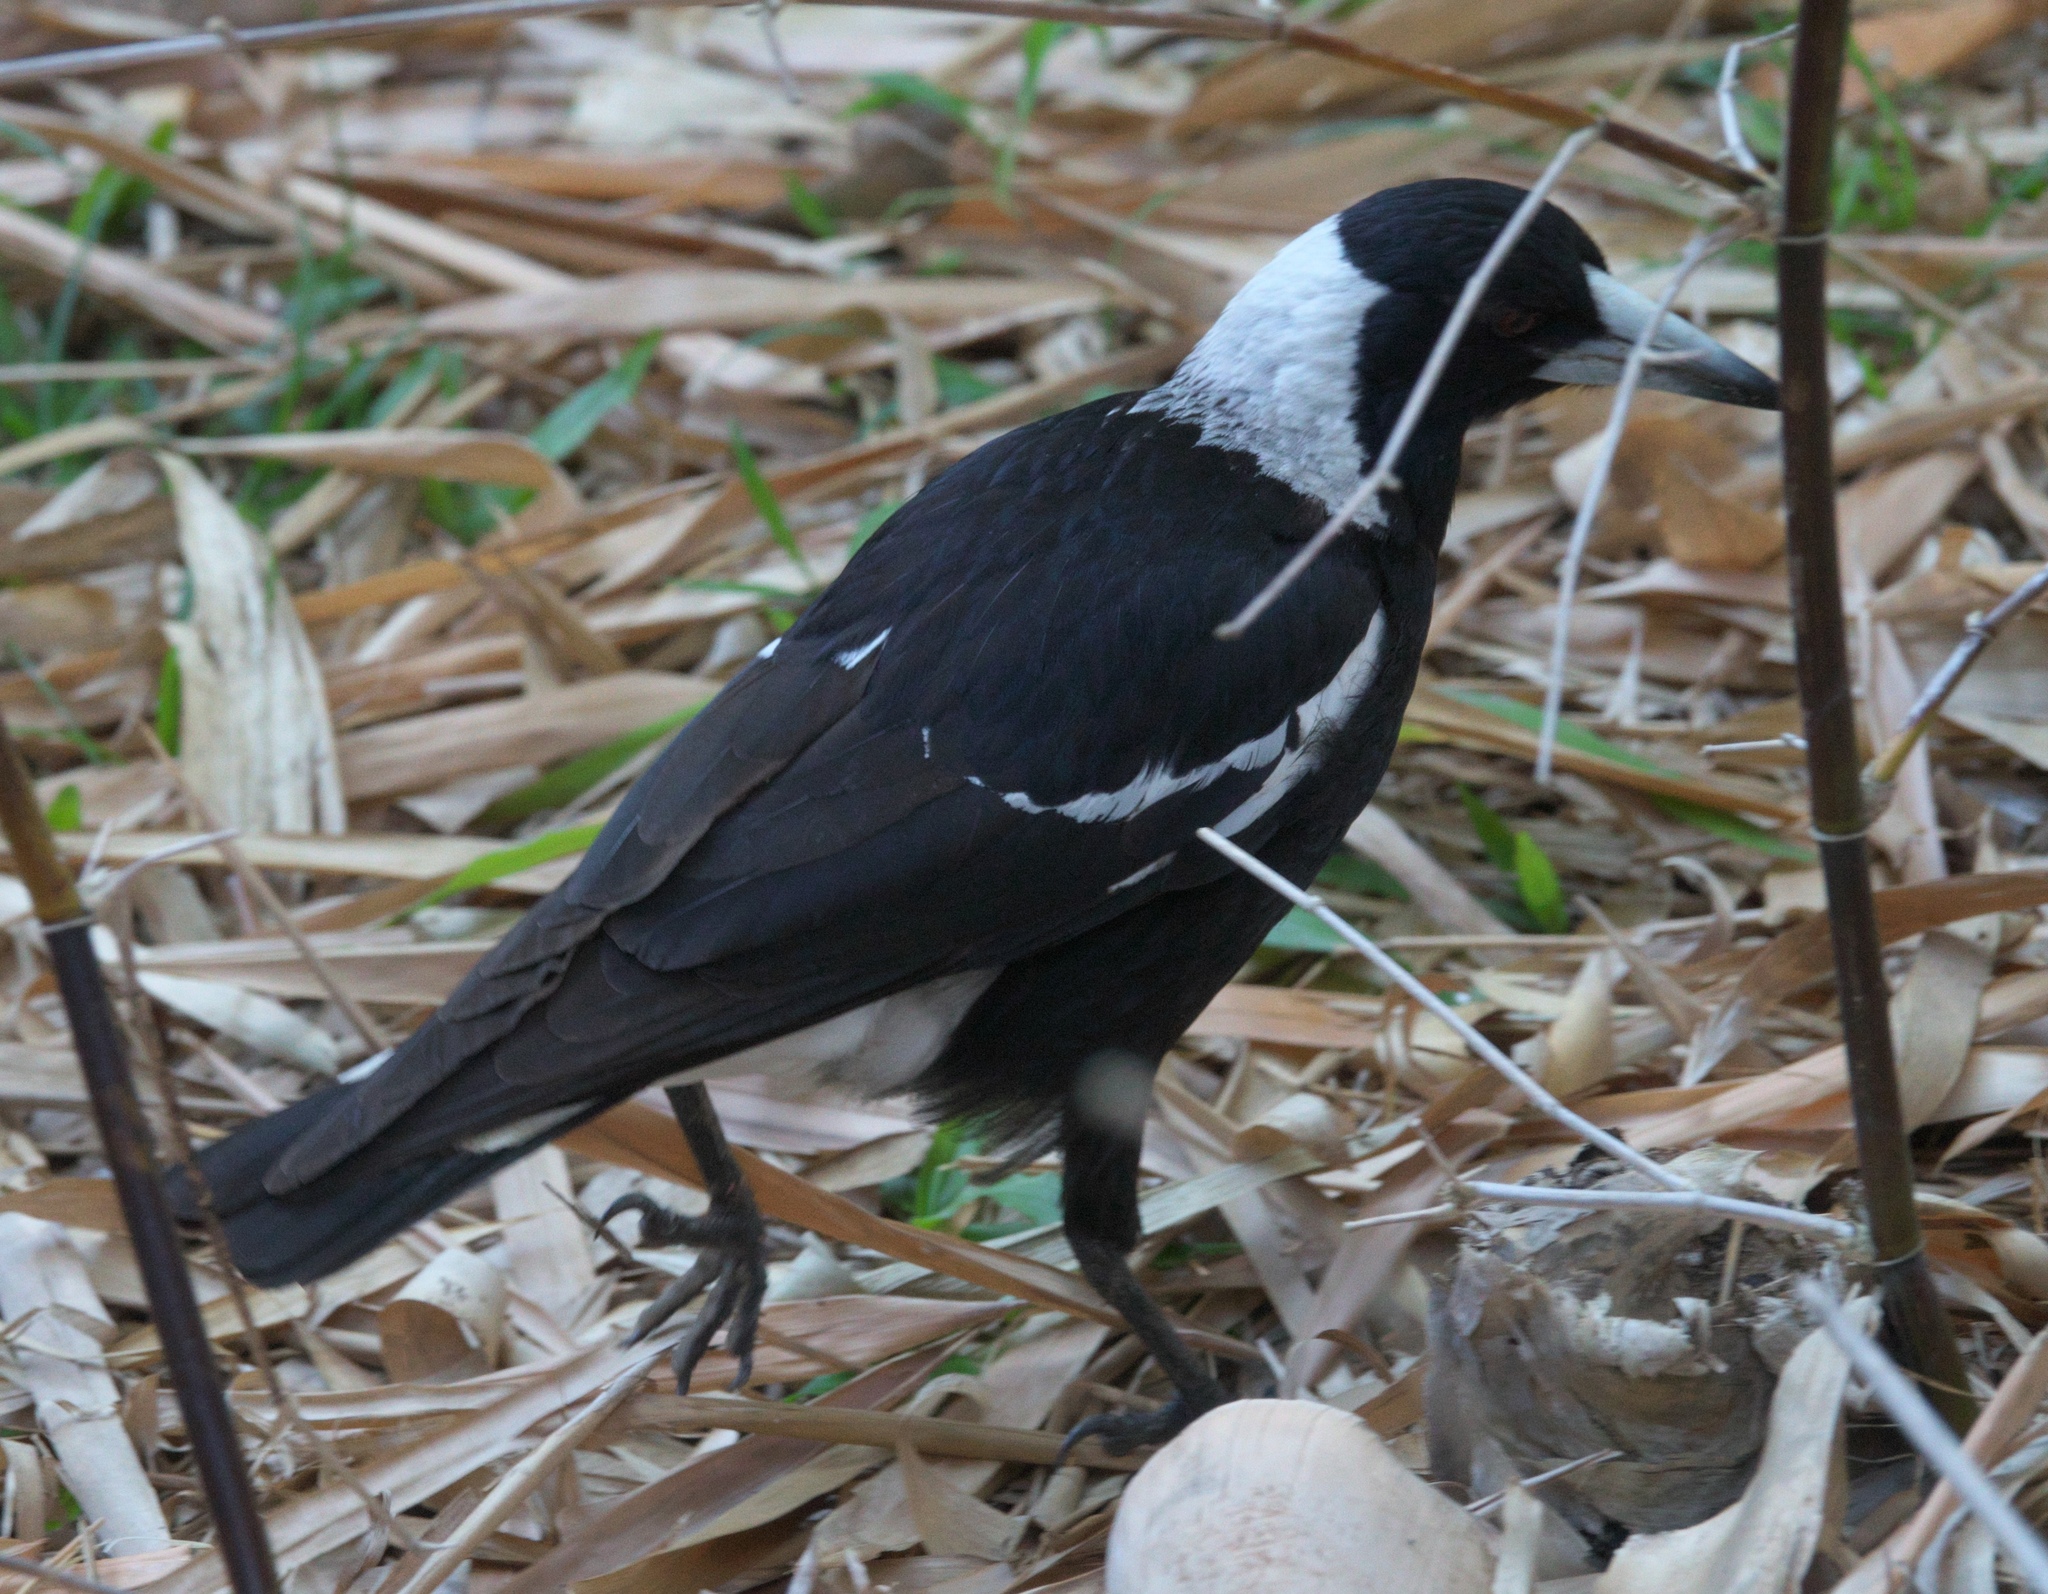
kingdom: Animalia
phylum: Chordata
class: Aves
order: Passeriformes
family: Cracticidae
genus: Gymnorhina
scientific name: Gymnorhina tibicen
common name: Australian magpie
